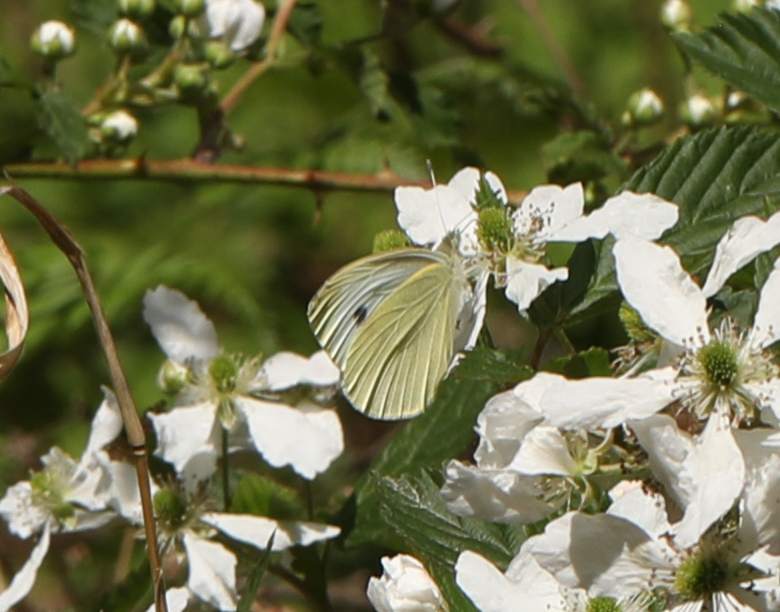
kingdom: Animalia
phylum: Arthropoda
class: Insecta
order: Lepidoptera
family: Pieridae
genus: Pieris
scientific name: Pieris rapae
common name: Small white
